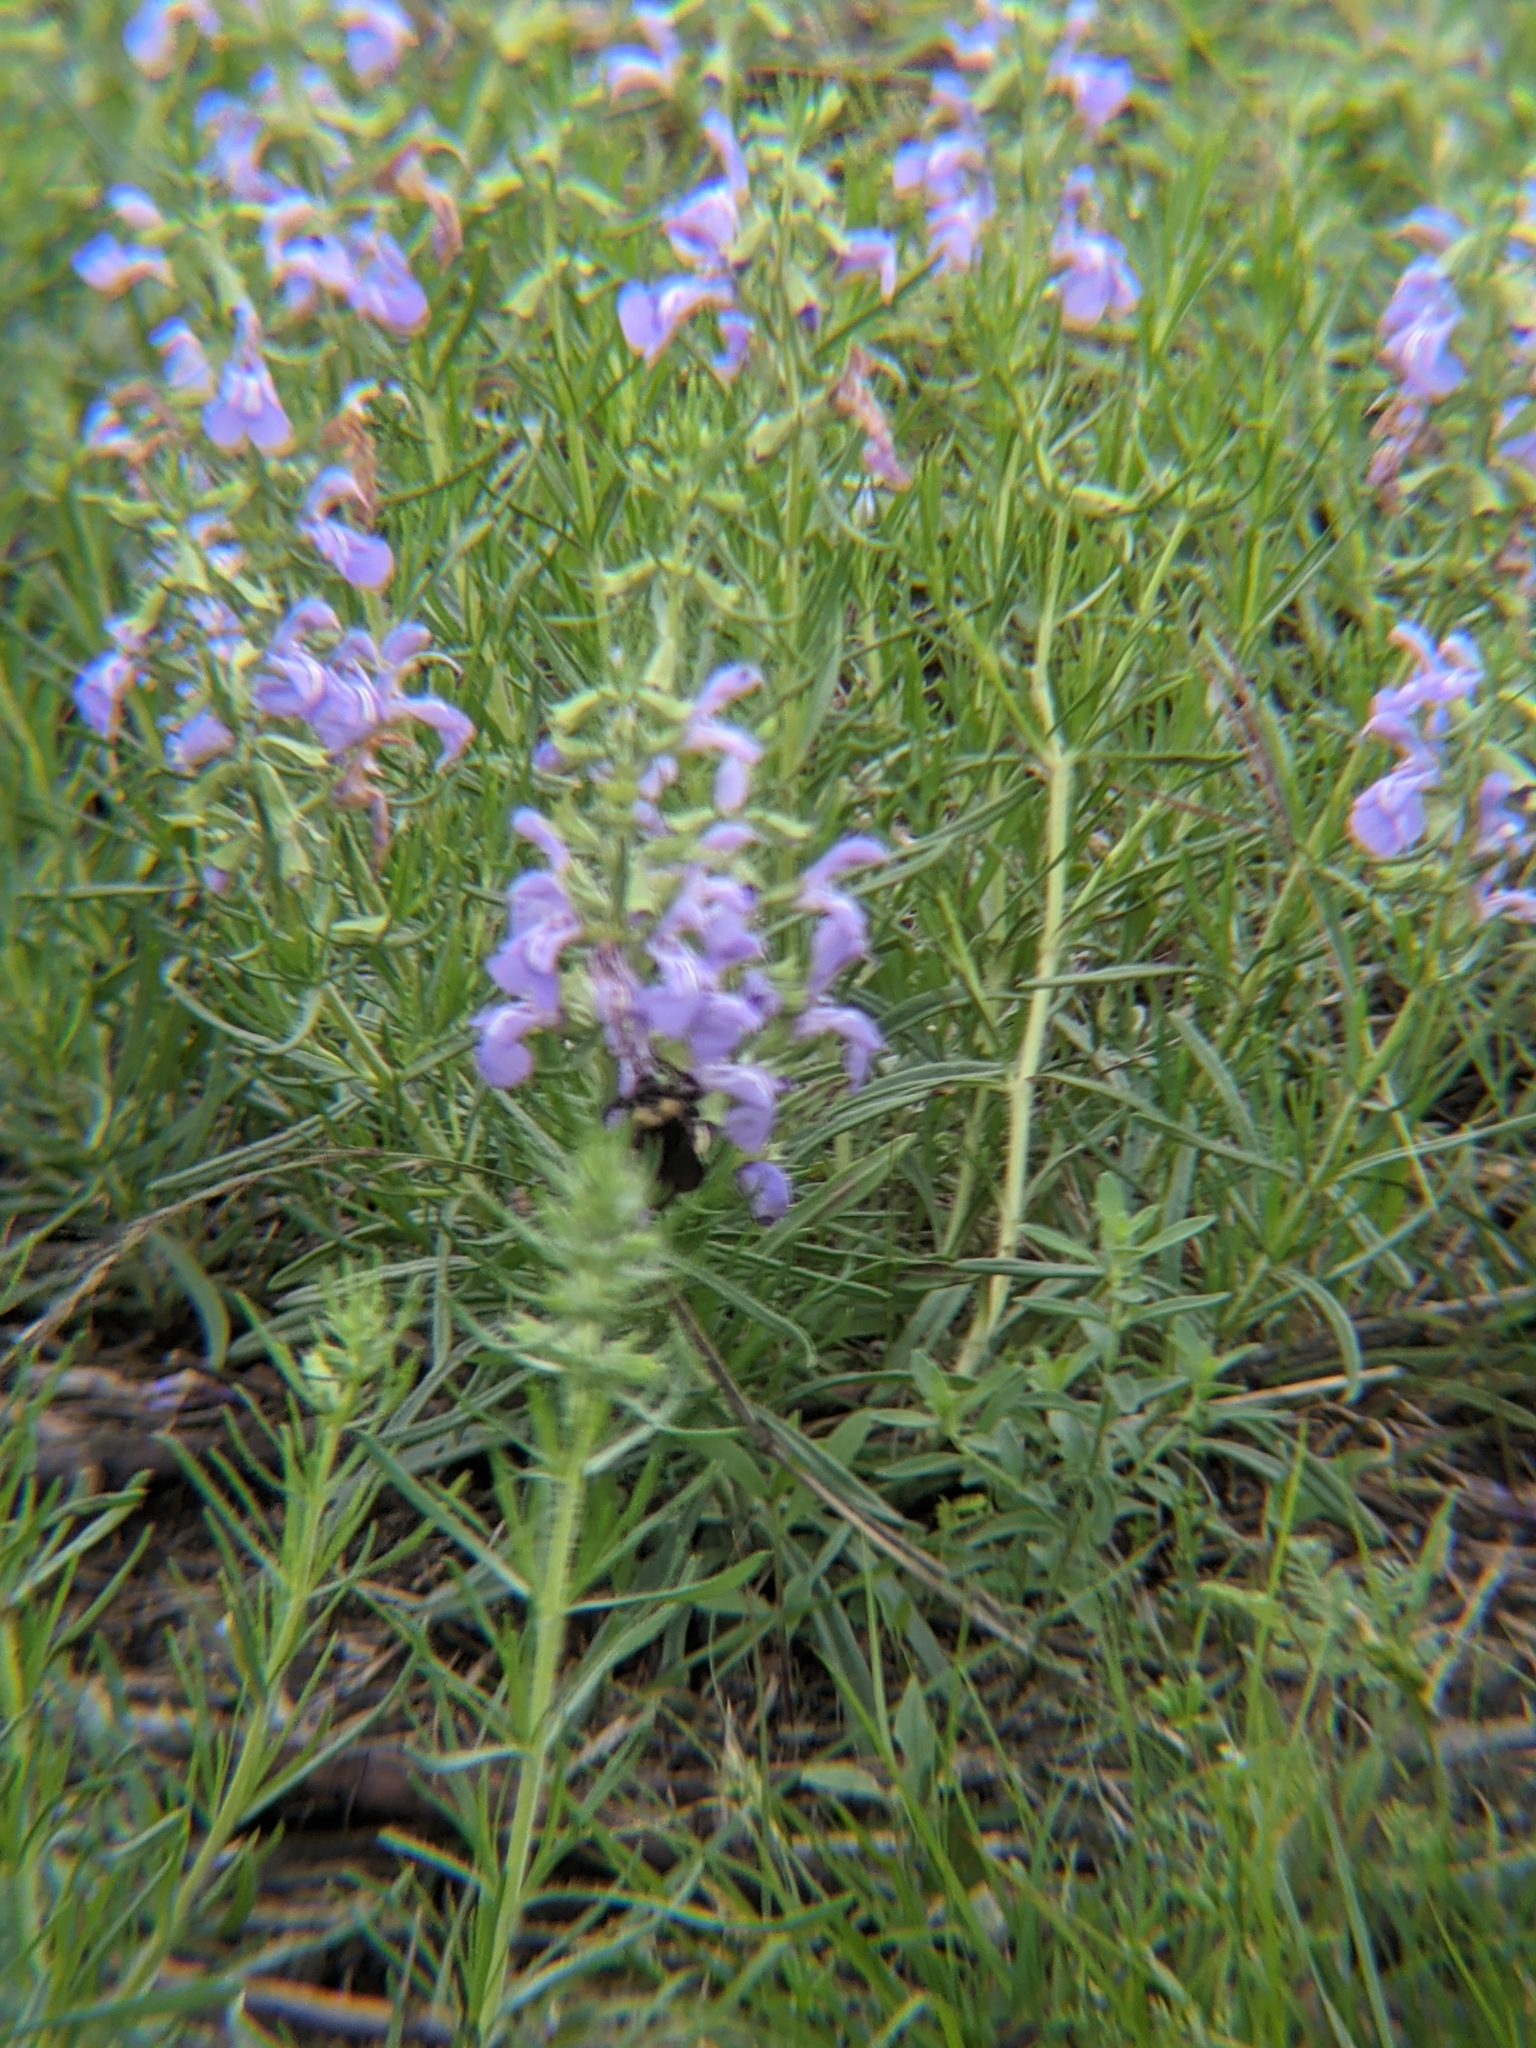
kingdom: Animalia
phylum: Arthropoda
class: Insecta
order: Hymenoptera
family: Apidae
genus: Bombus
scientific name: Bombus pensylvanicus
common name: Bumble bee
